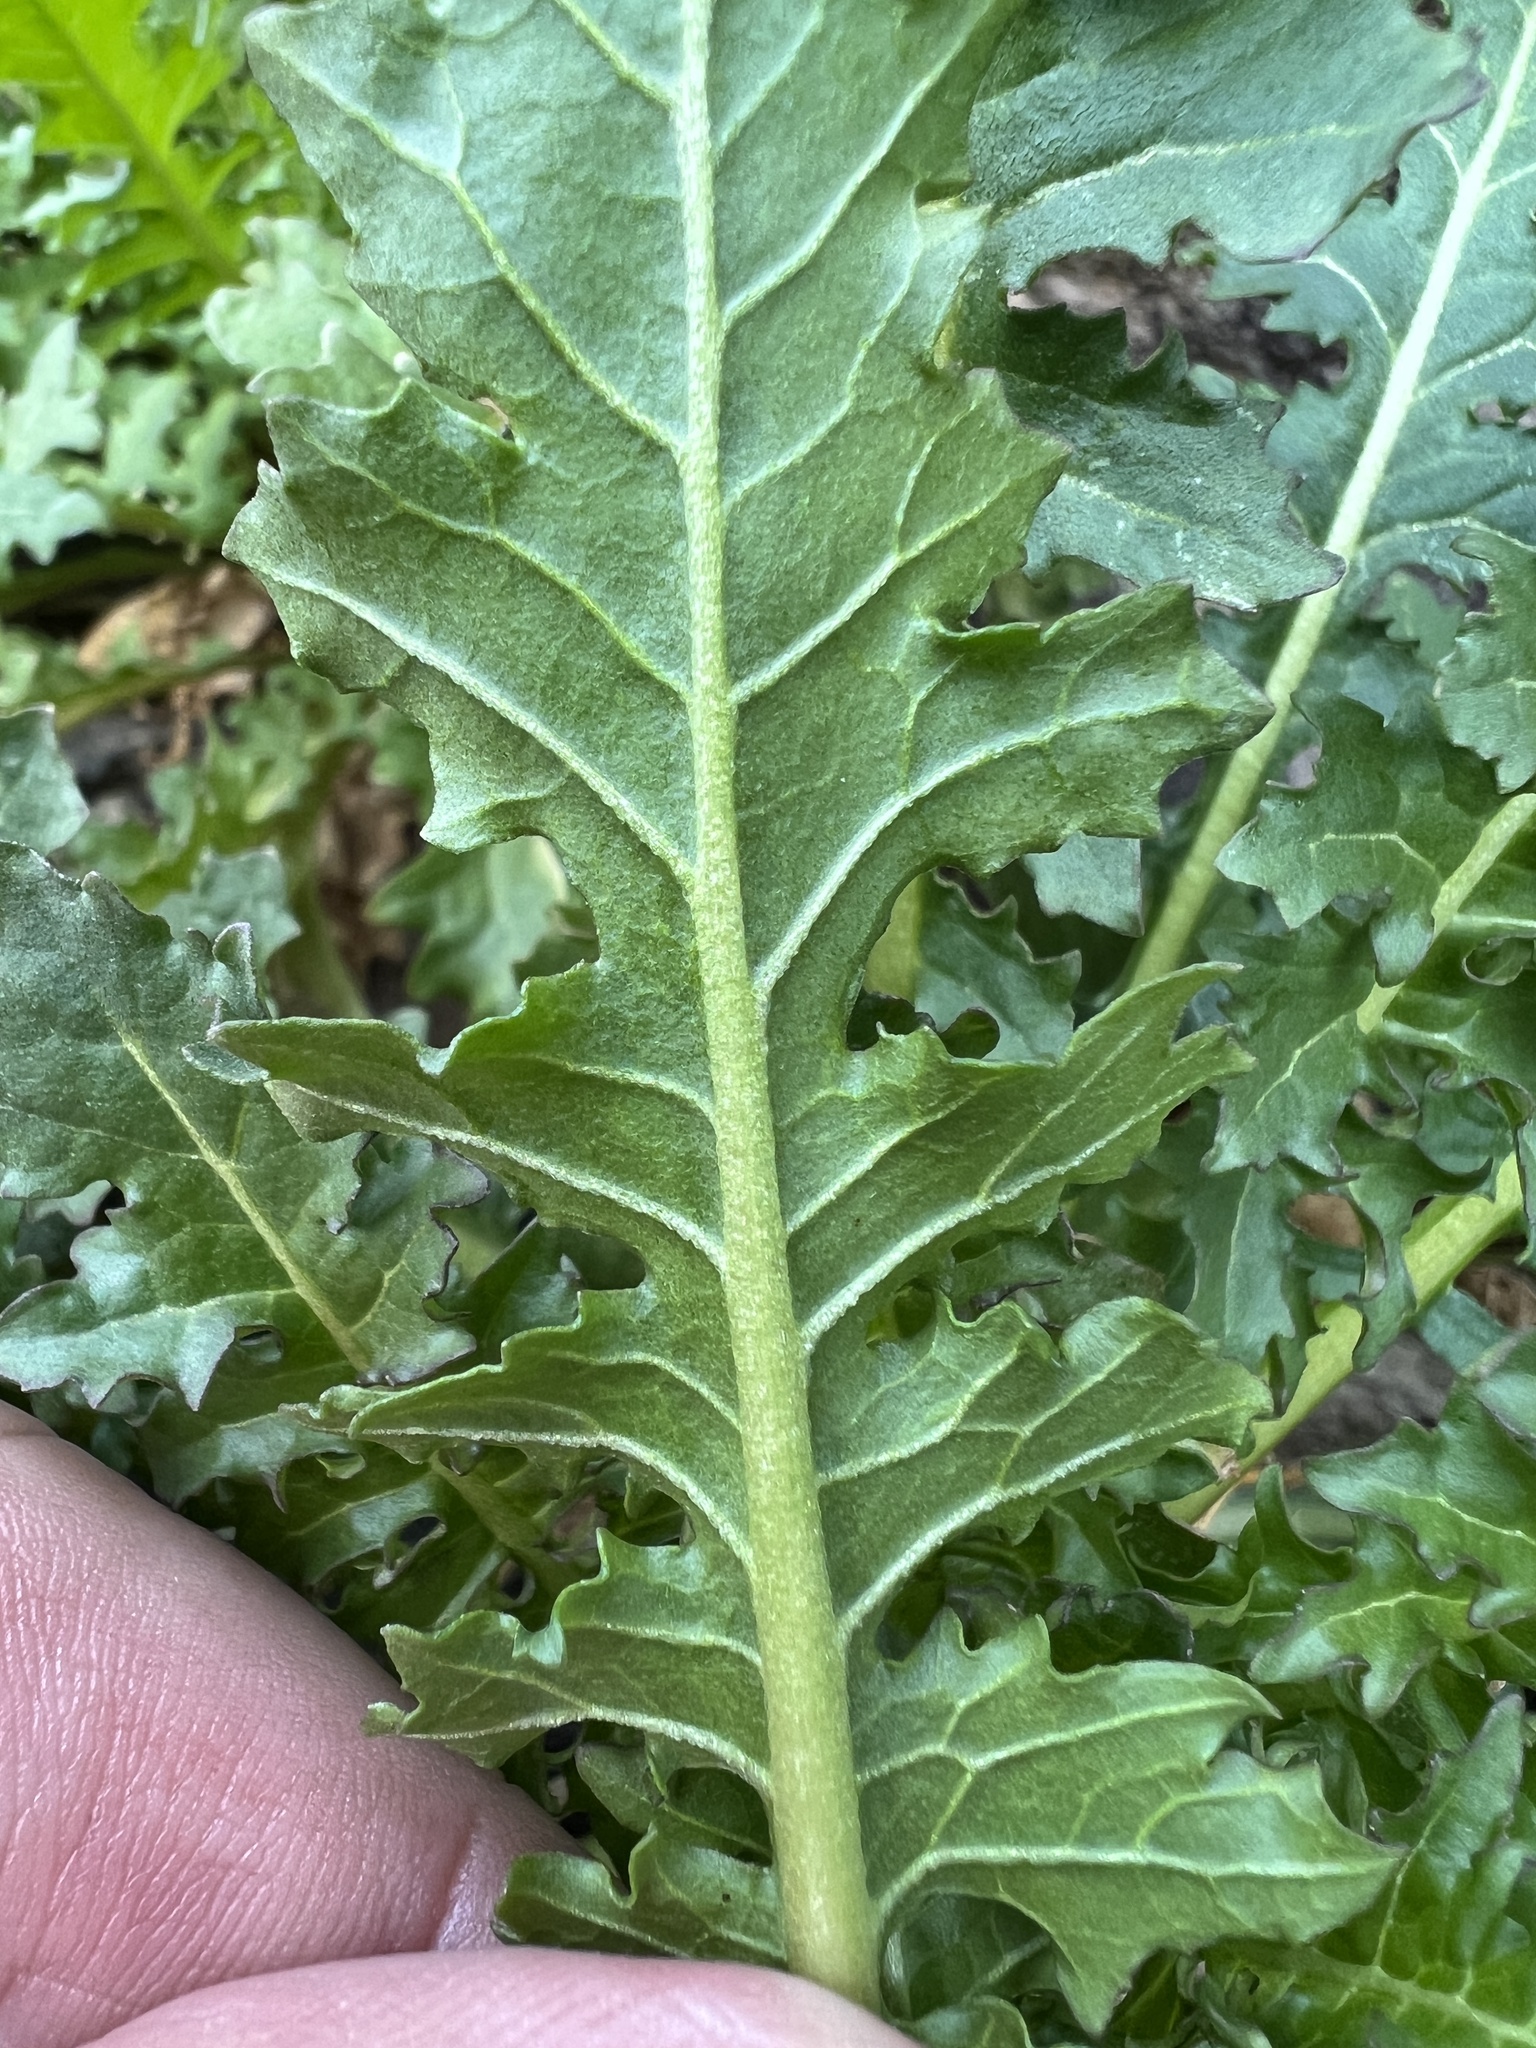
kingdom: Plantae
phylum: Tracheophyta
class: Magnoliopsida
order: Brassicales
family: Brassicaceae
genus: Thelypodium
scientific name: Thelypodium laciniatum
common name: Cut-leaved thelypody
